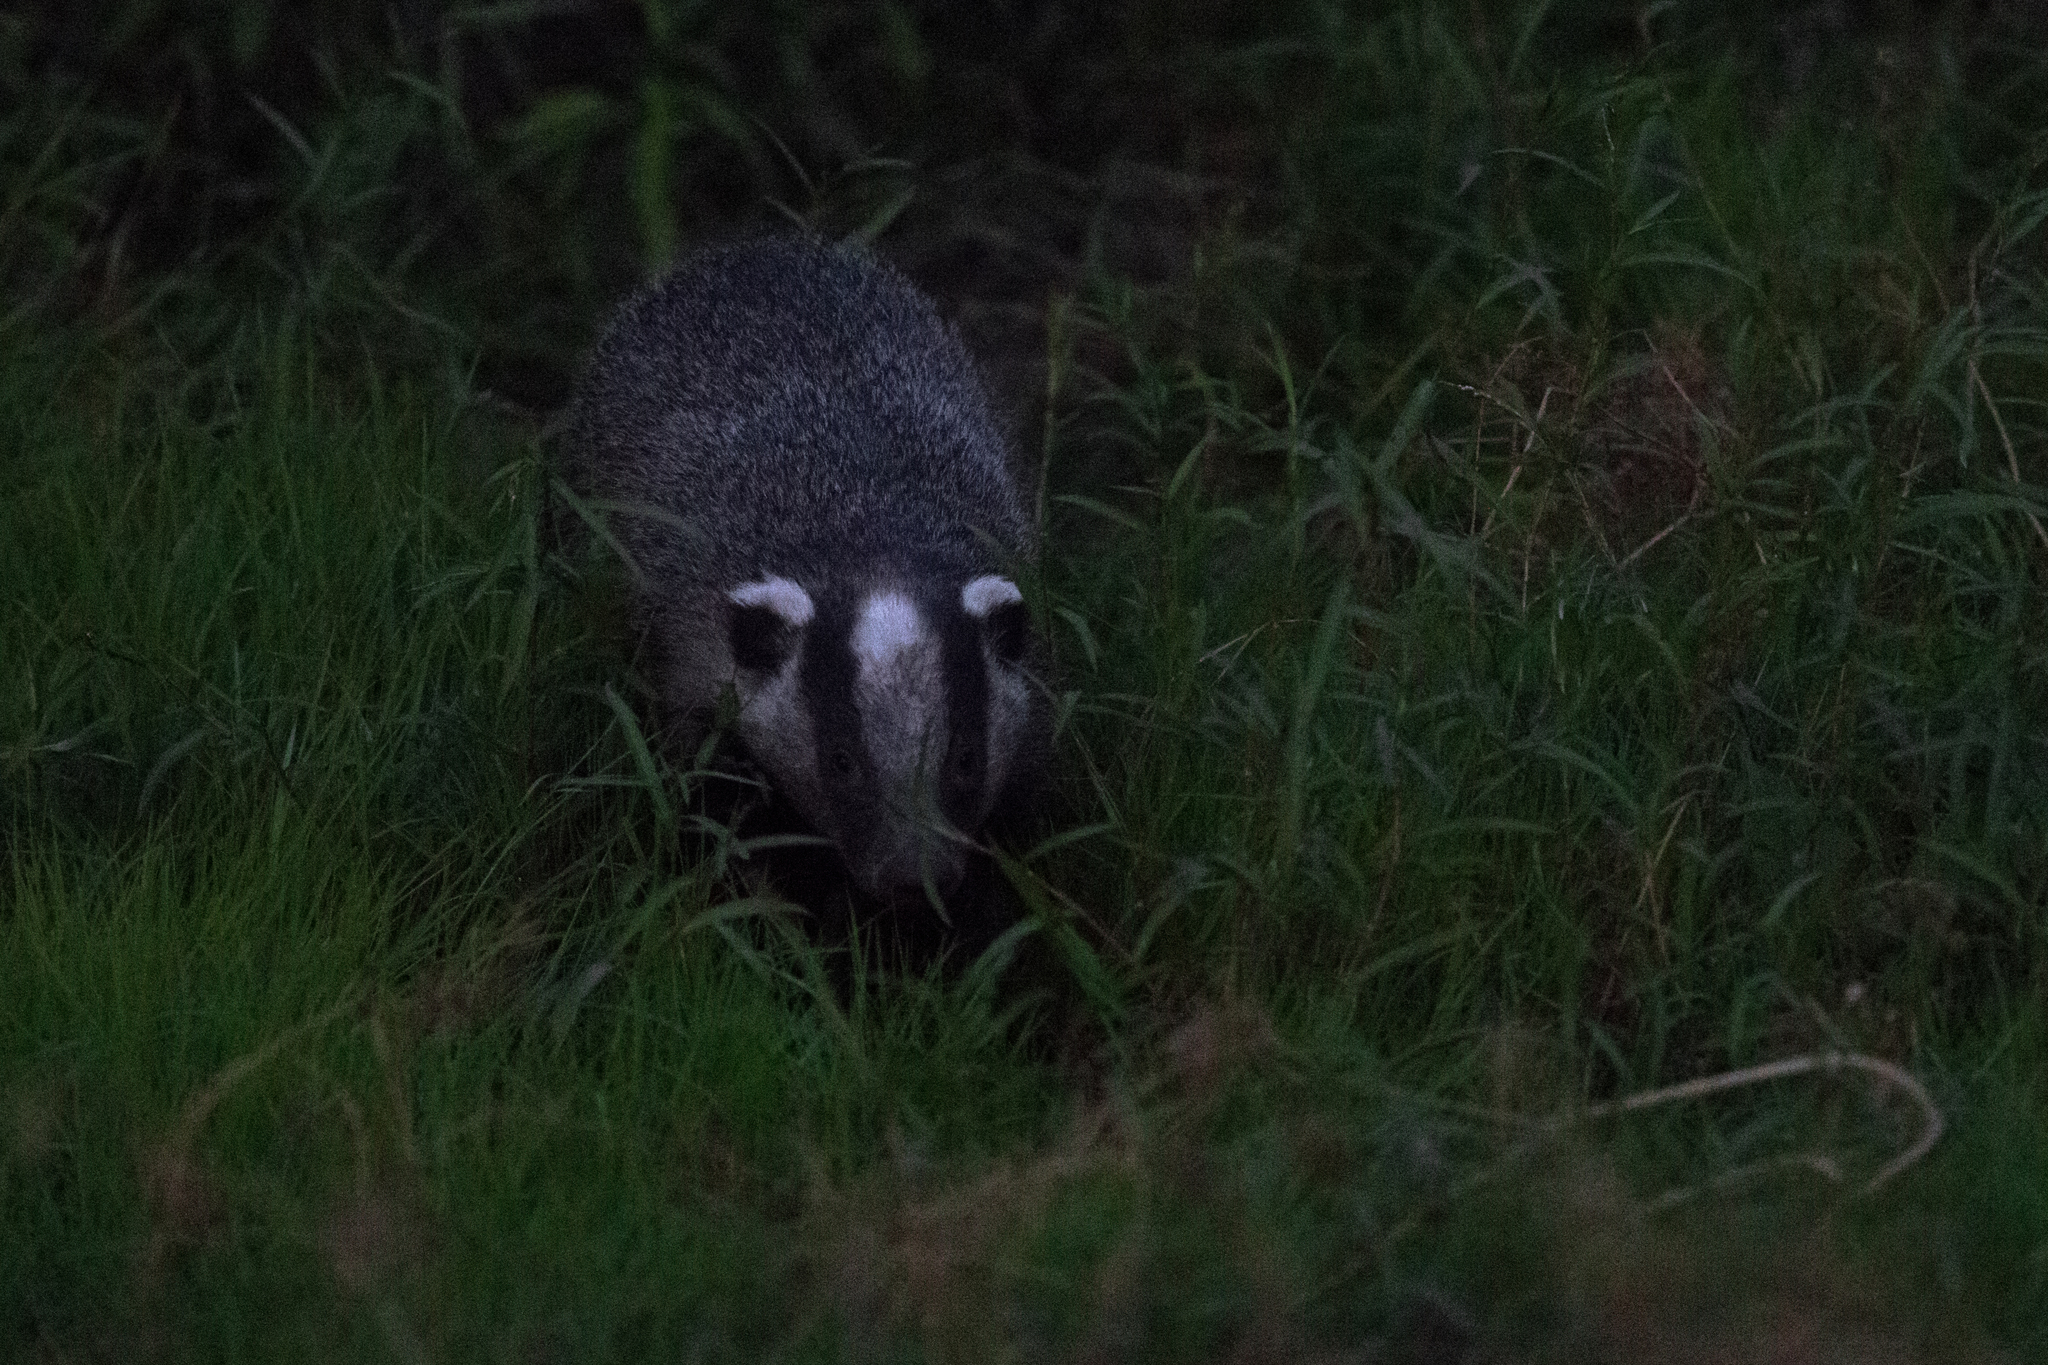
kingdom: Animalia
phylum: Chordata
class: Mammalia
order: Carnivora
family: Mustelidae
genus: Meles
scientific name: Meles leucurus
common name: Asian badger
